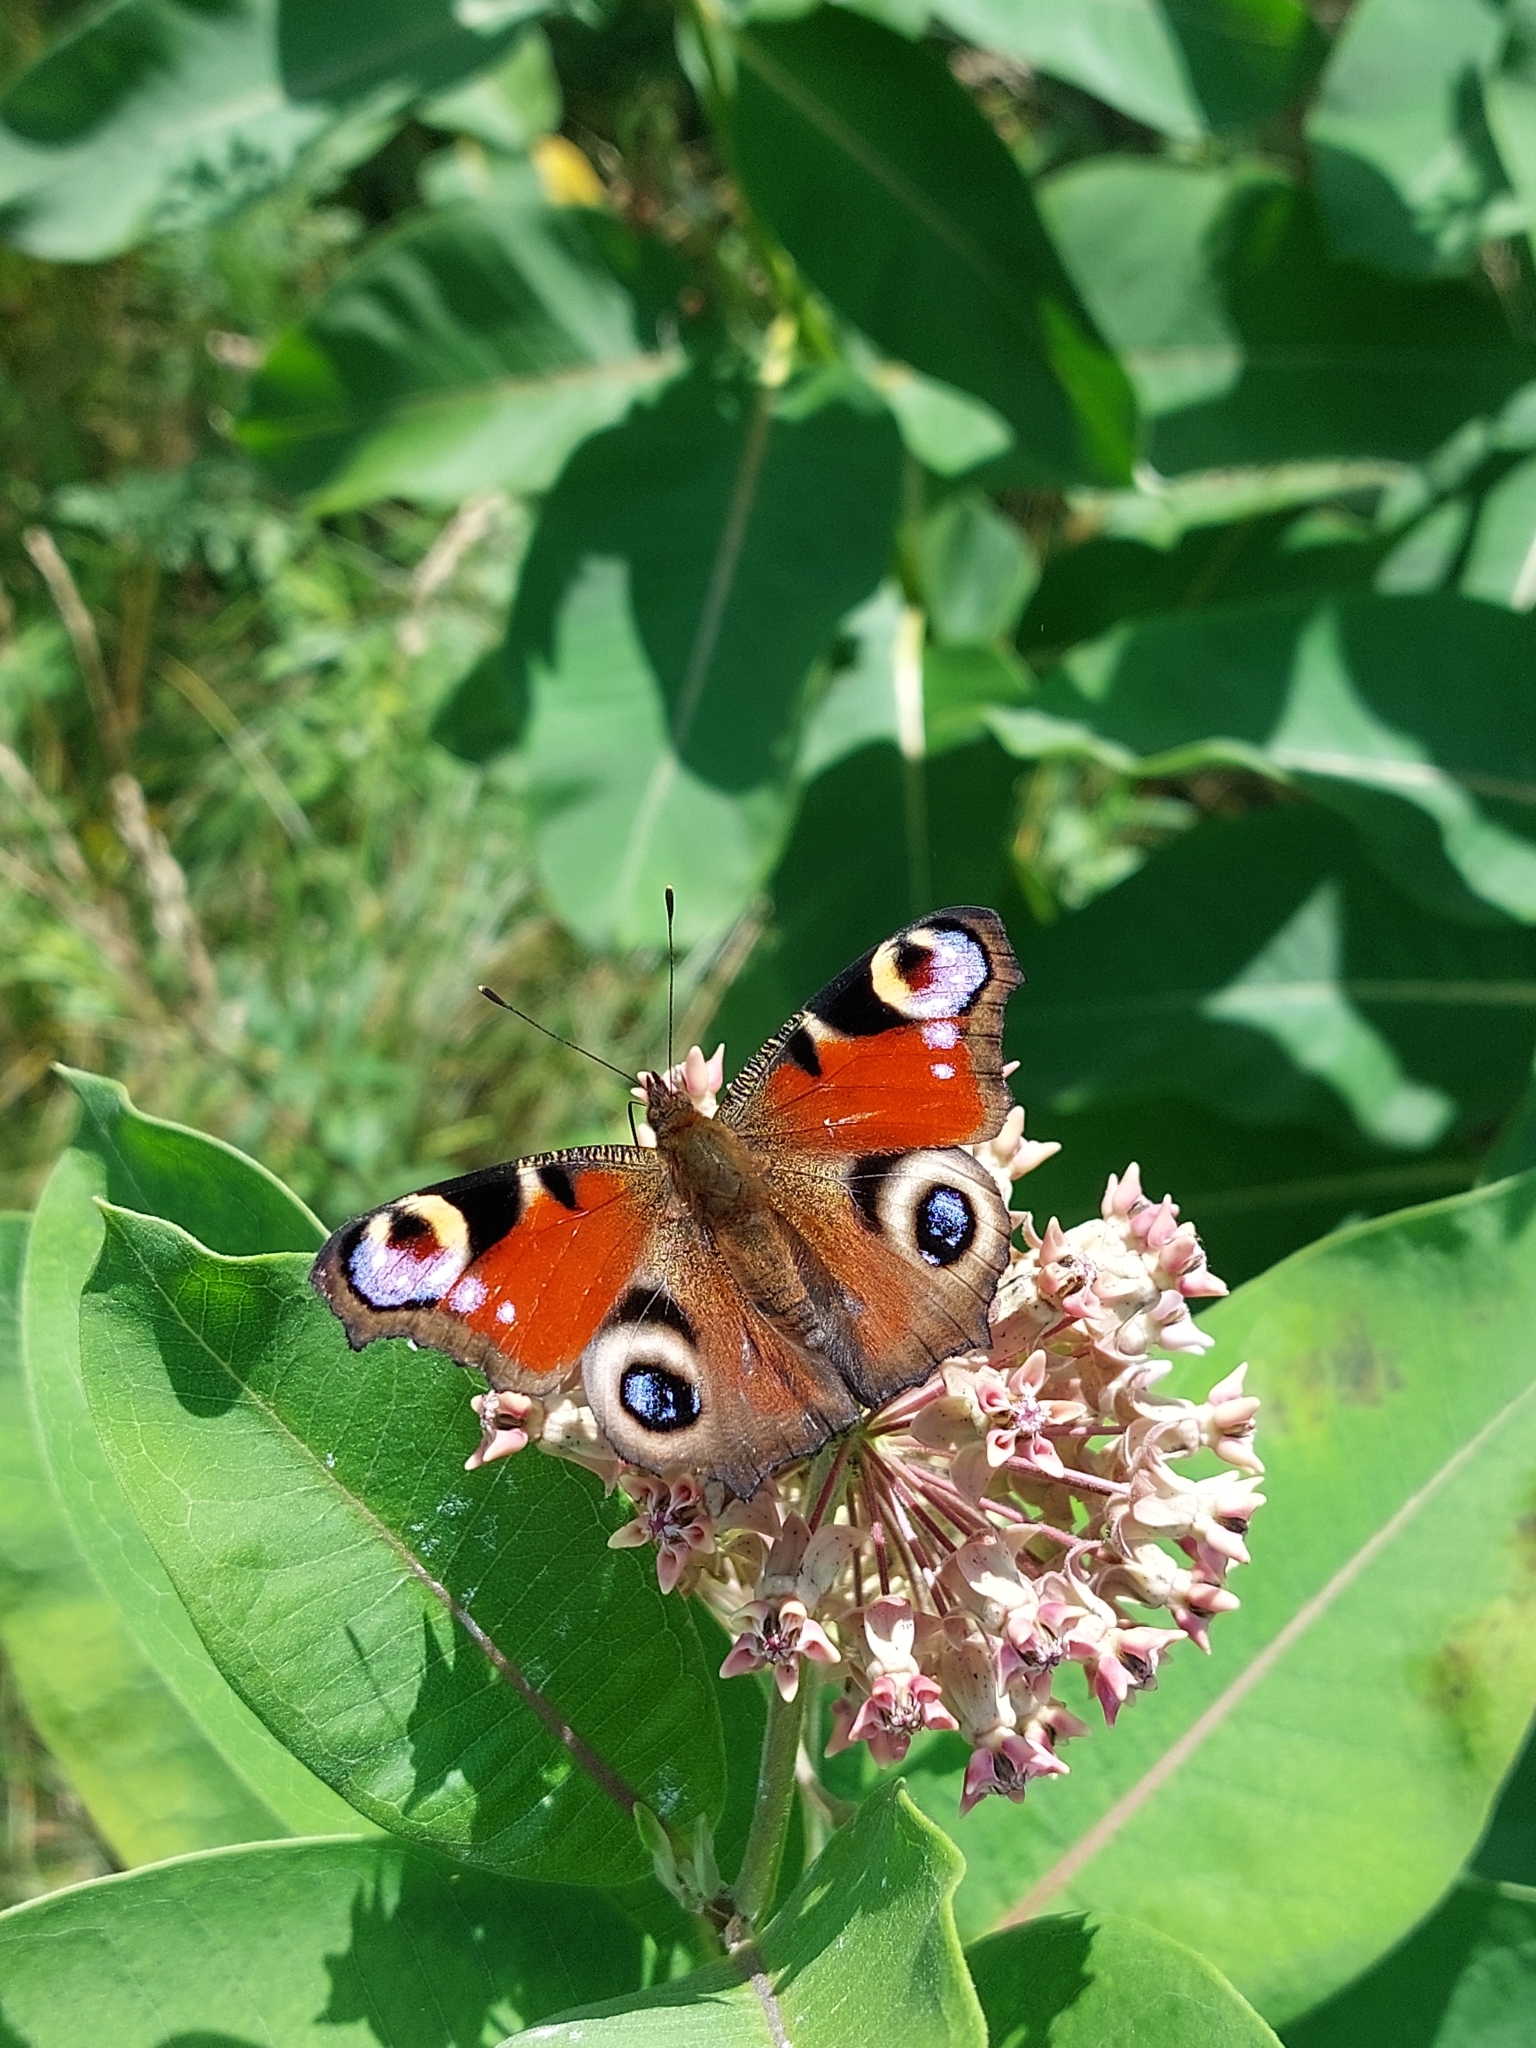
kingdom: Animalia
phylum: Arthropoda
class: Insecta
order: Lepidoptera
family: Nymphalidae
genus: Aglais
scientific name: Aglais io
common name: Peacock
